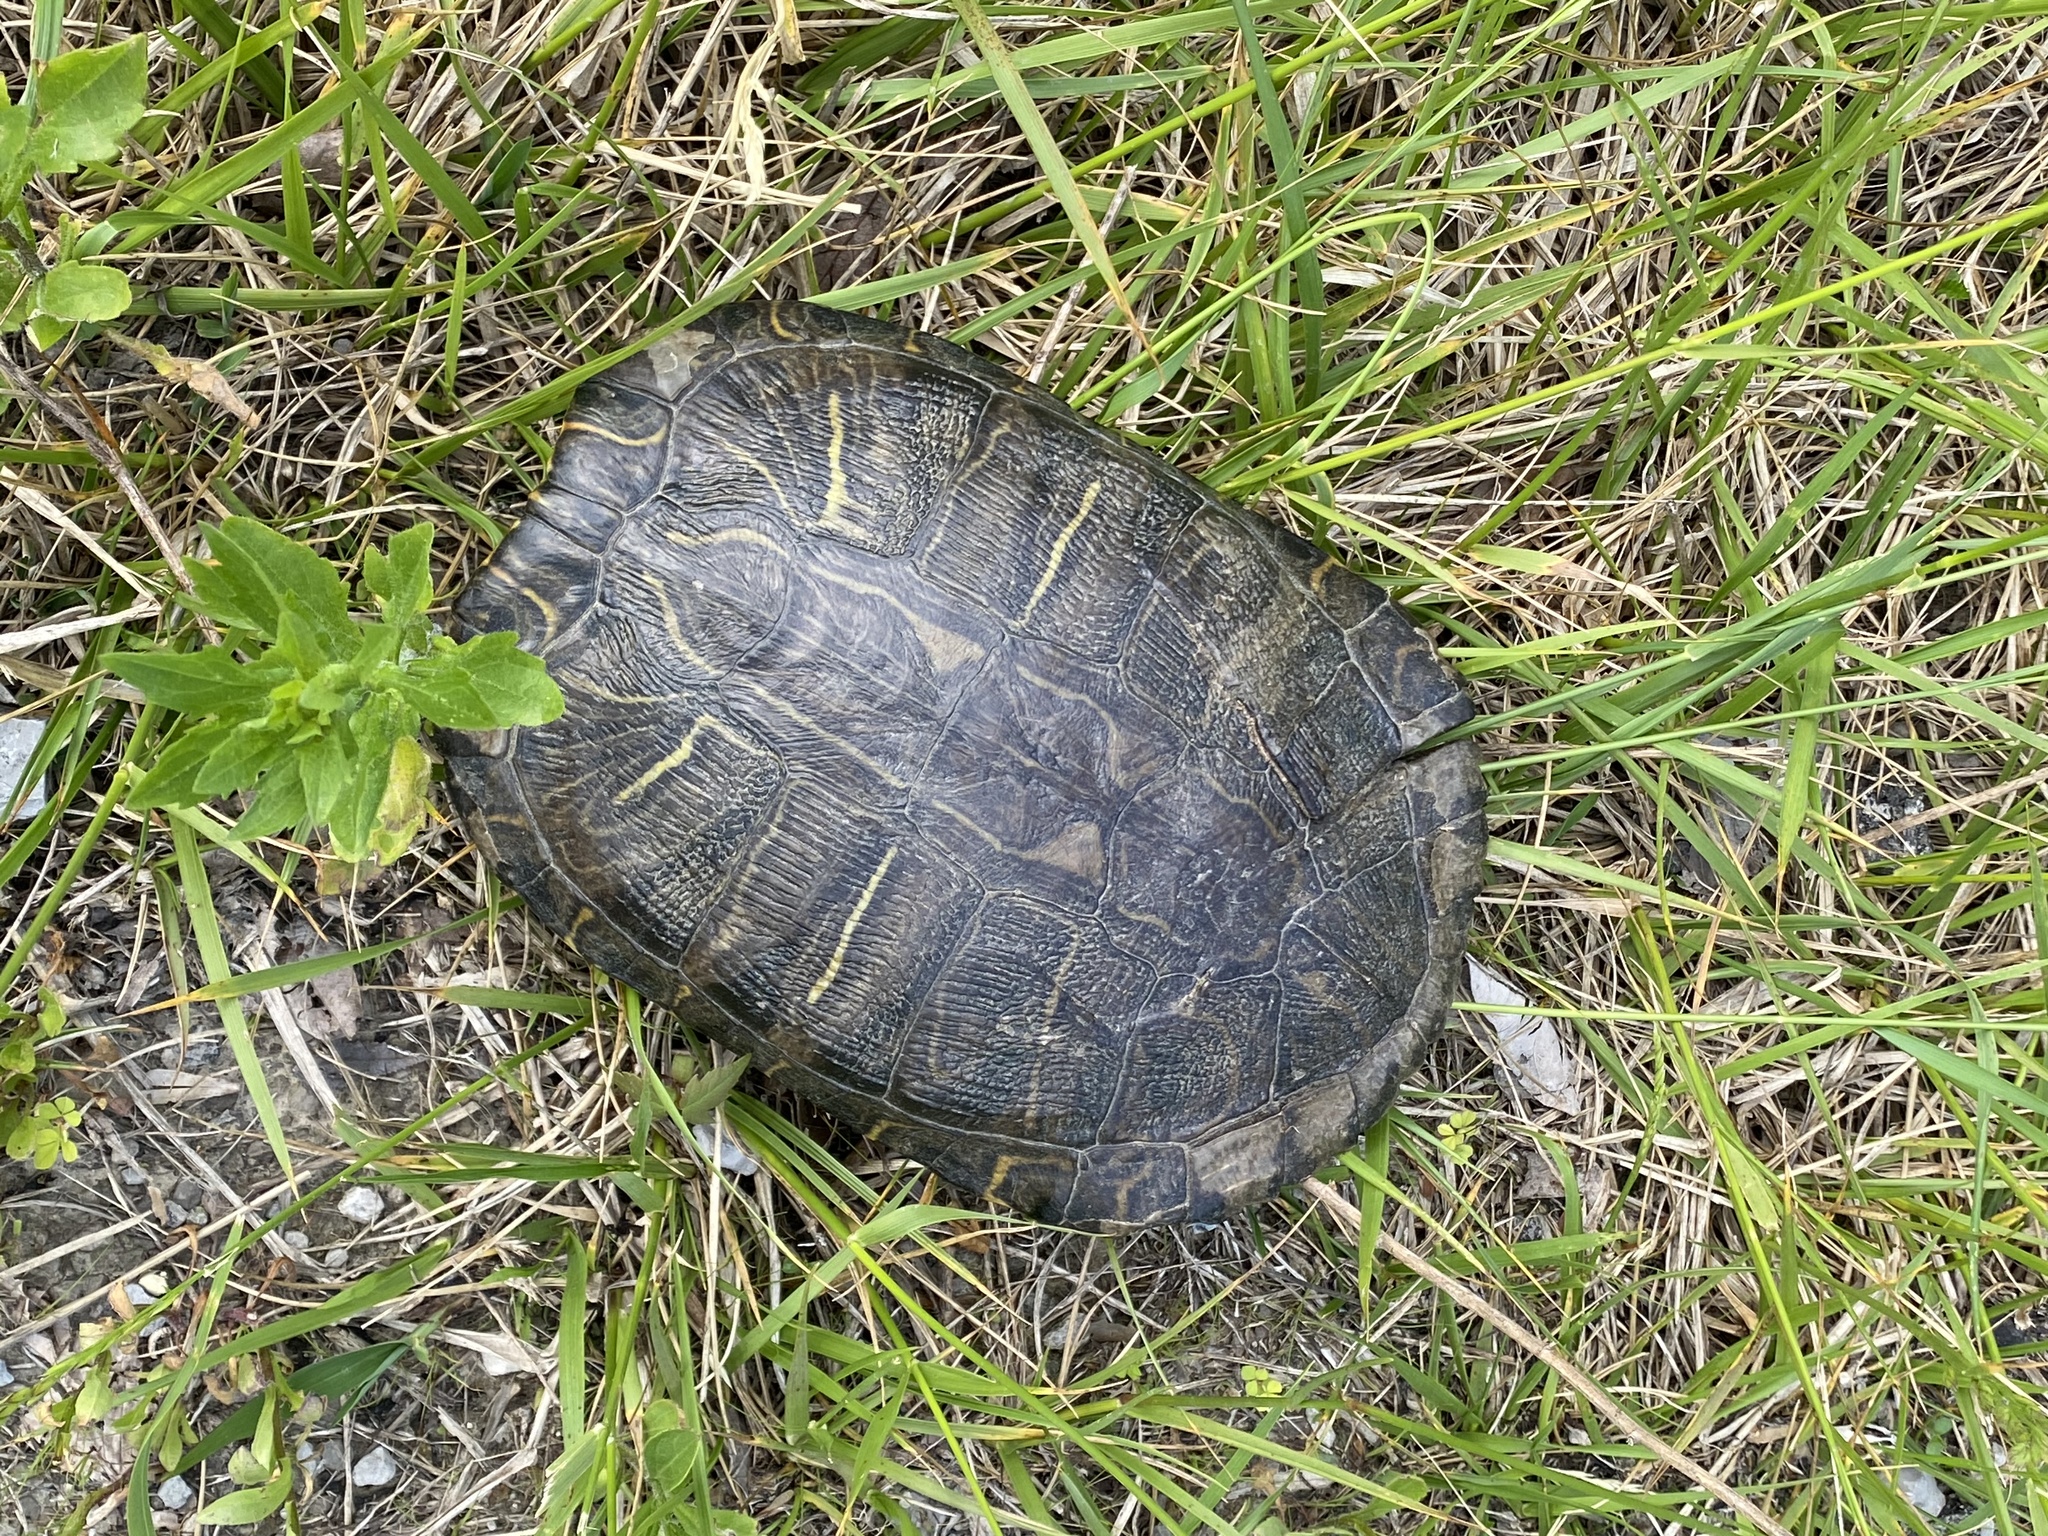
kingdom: Animalia
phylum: Chordata
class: Testudines
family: Emydidae
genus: Trachemys
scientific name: Trachemys scripta
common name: Slider
